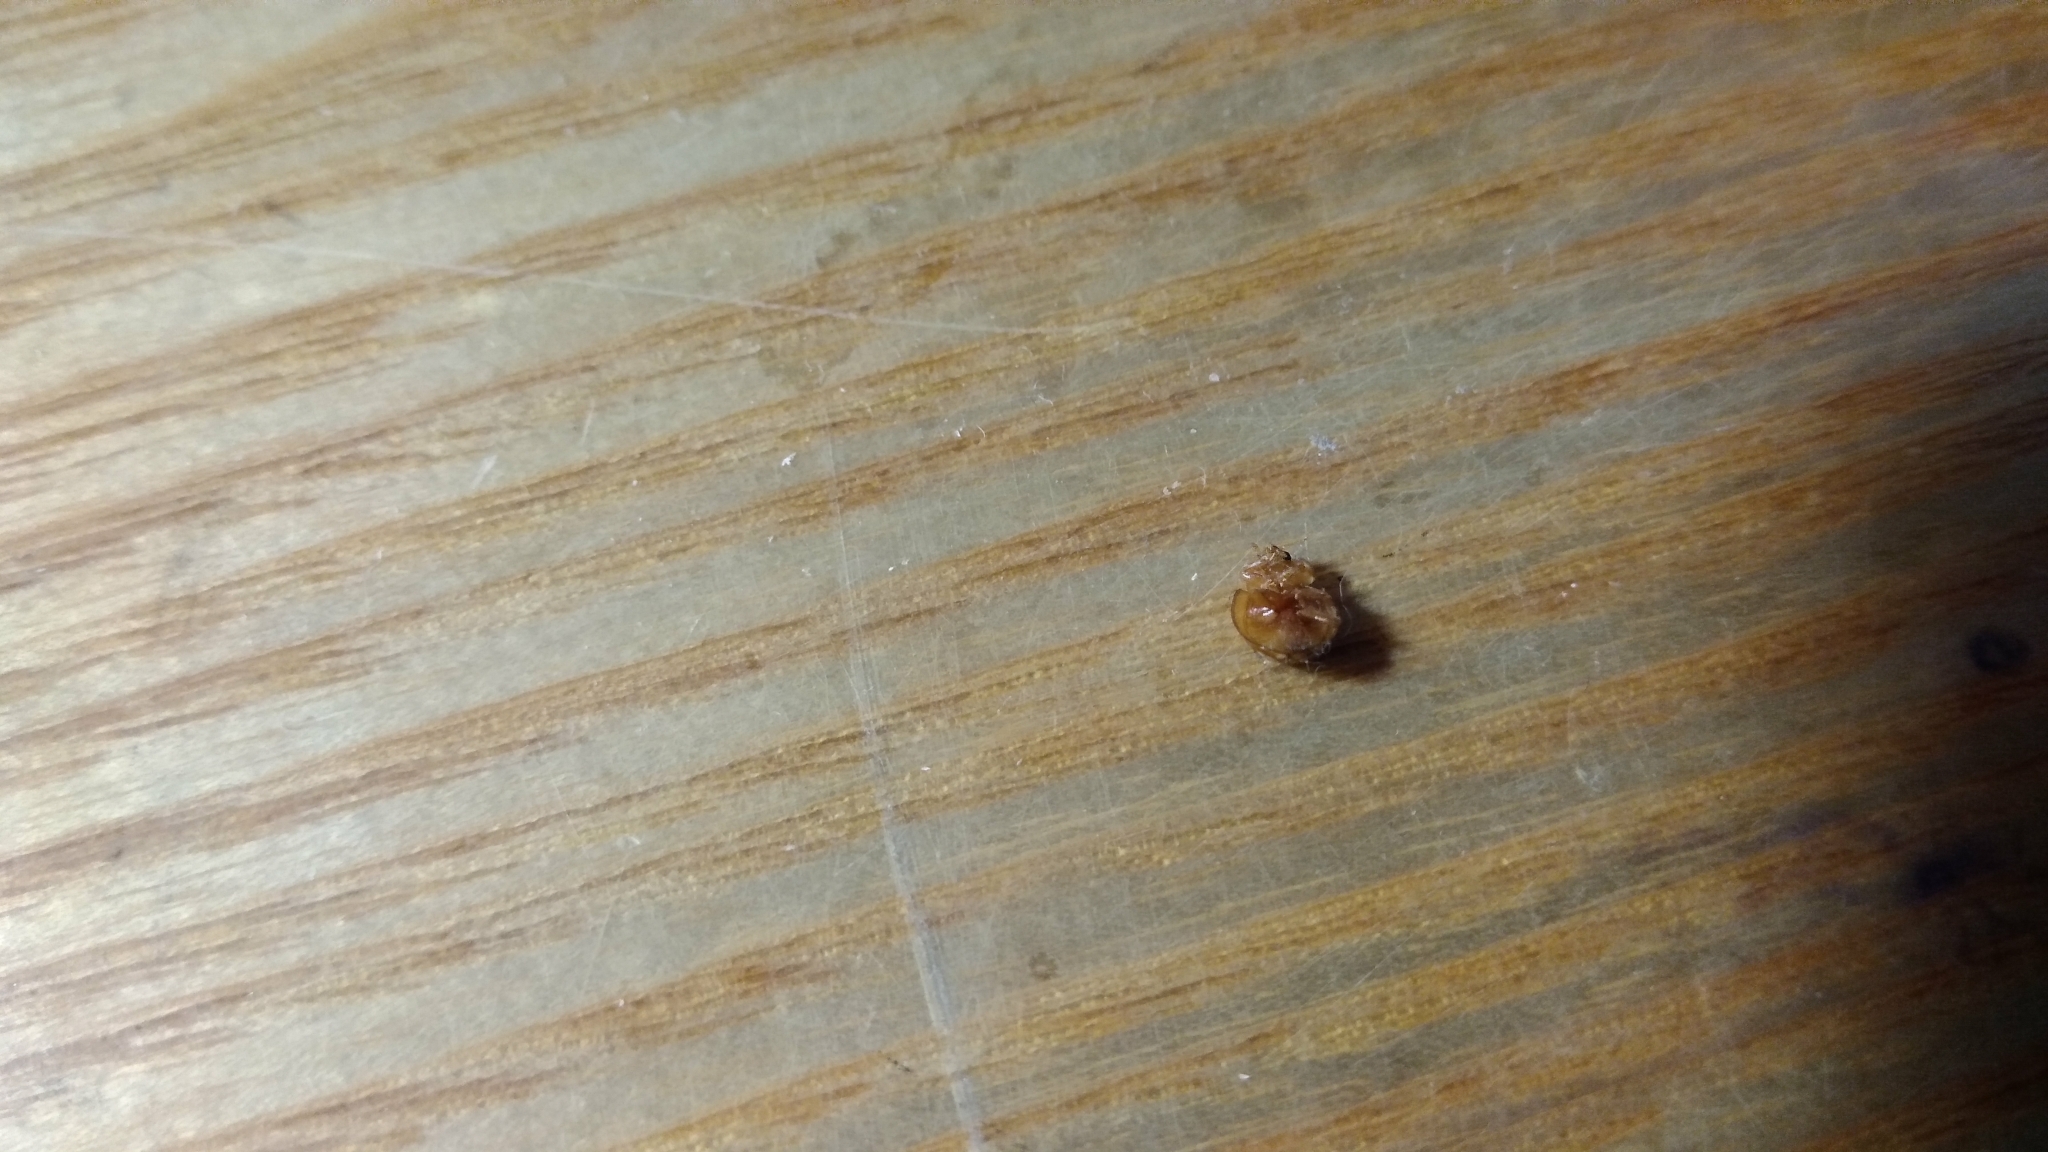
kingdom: Animalia
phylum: Arthropoda
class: Insecta
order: Coleoptera
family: Coccinellidae
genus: Calvia
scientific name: Calvia muiri
